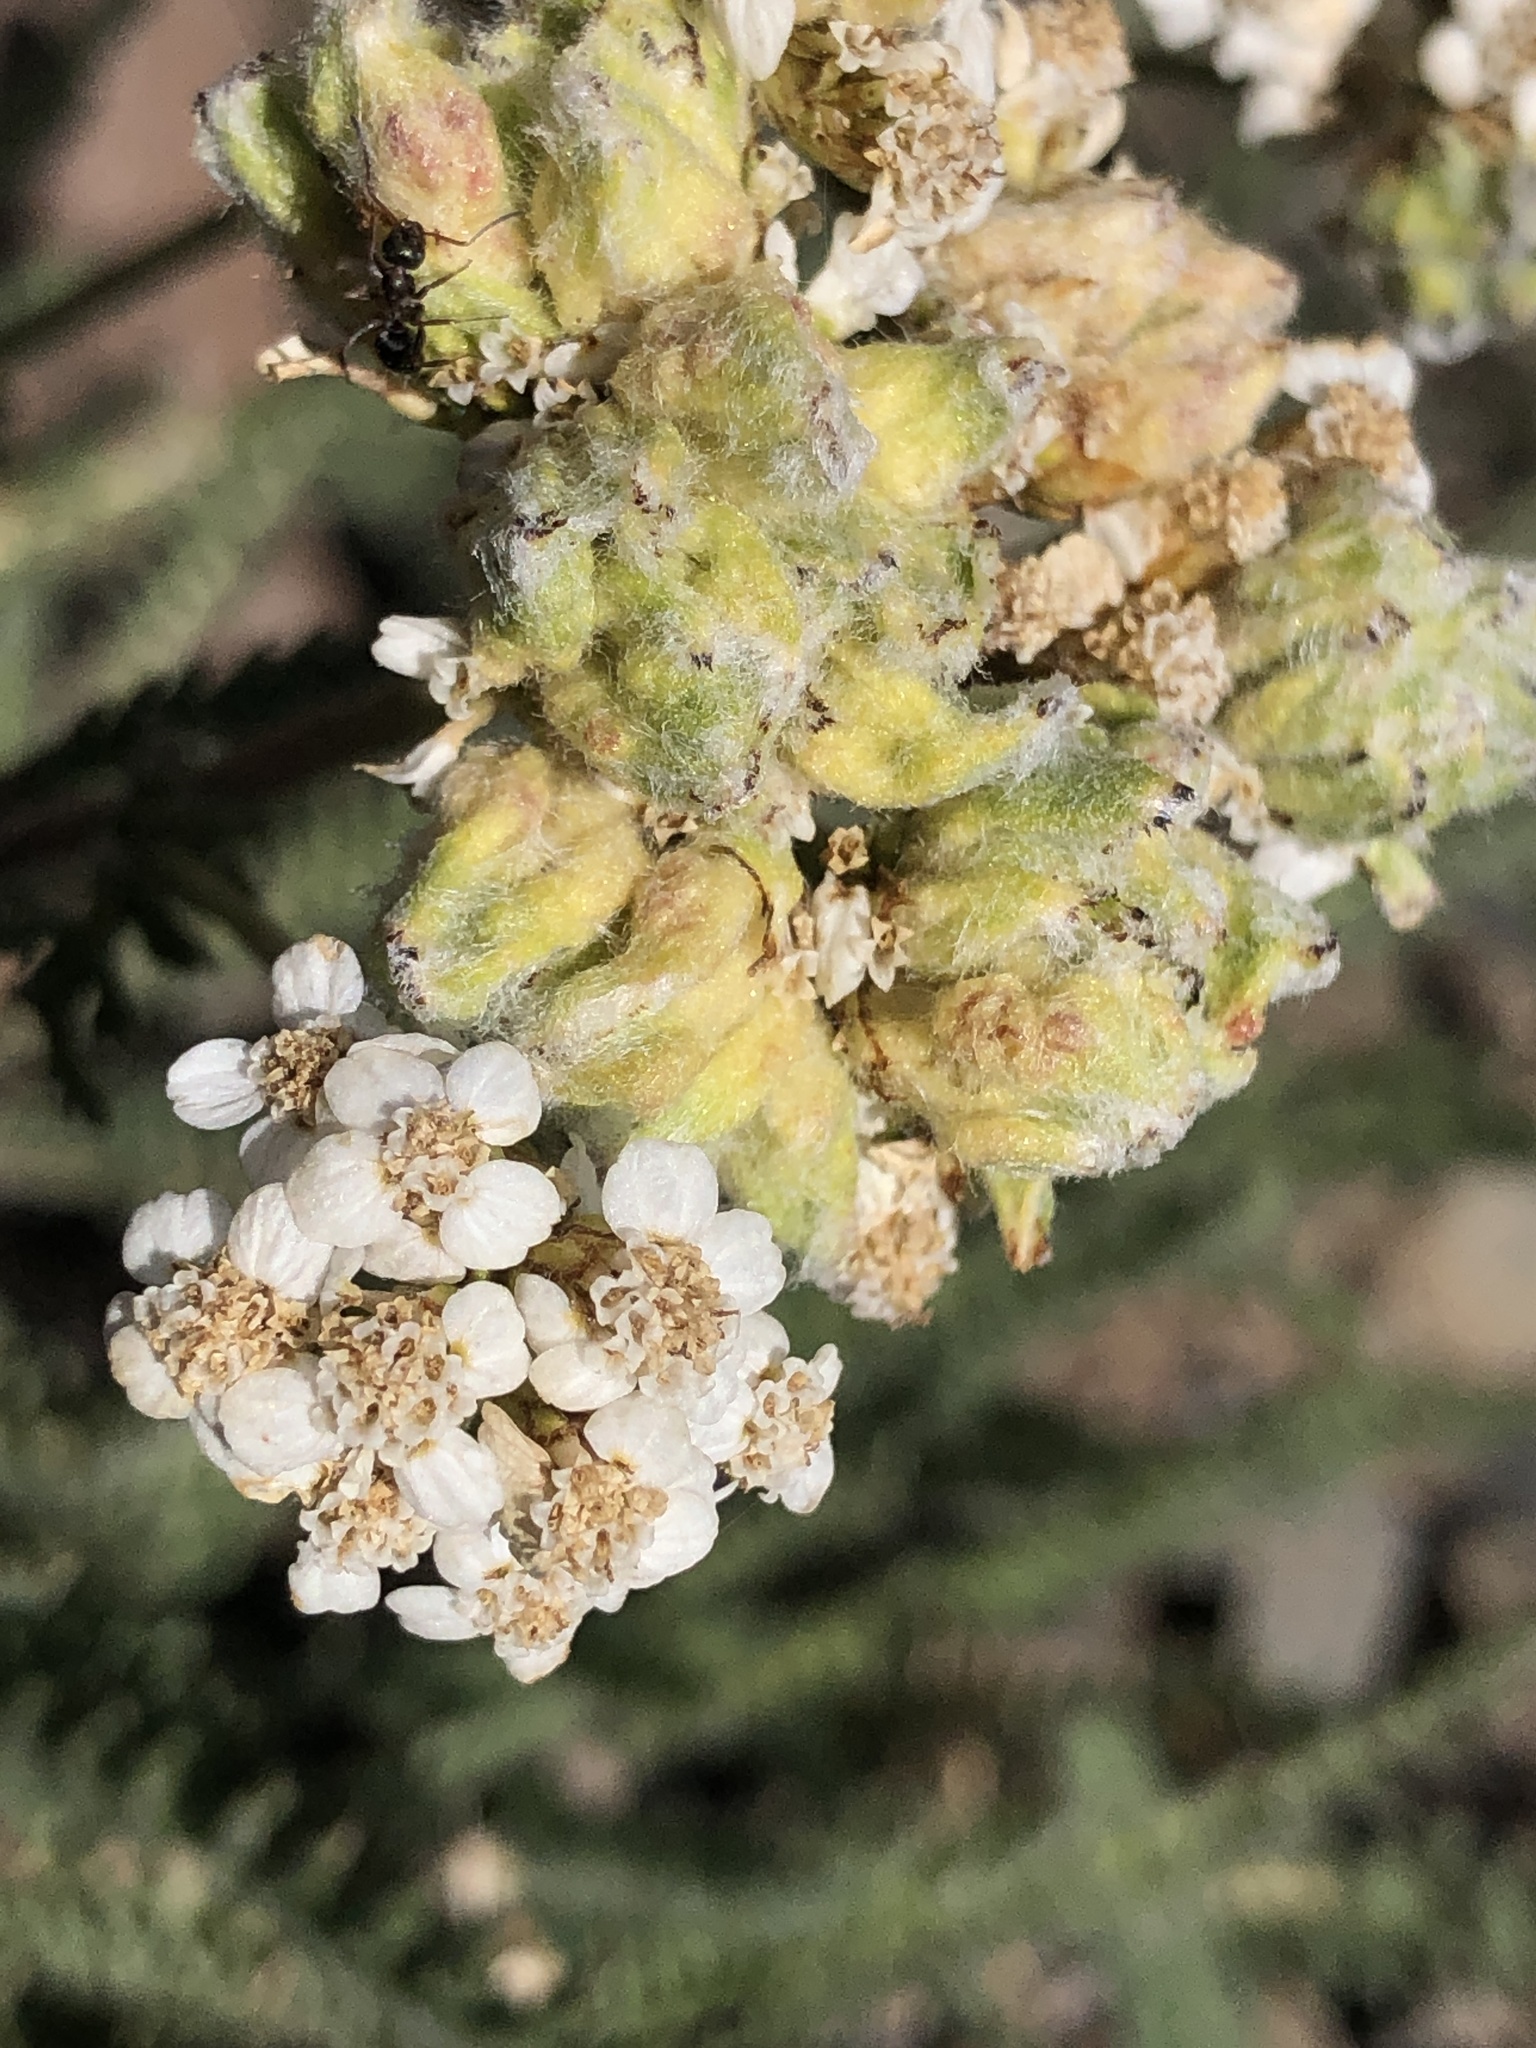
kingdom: Plantae
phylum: Tracheophyta
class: Magnoliopsida
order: Asterales
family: Asteraceae
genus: Achillea
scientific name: Achillea millefolium
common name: Yarrow
